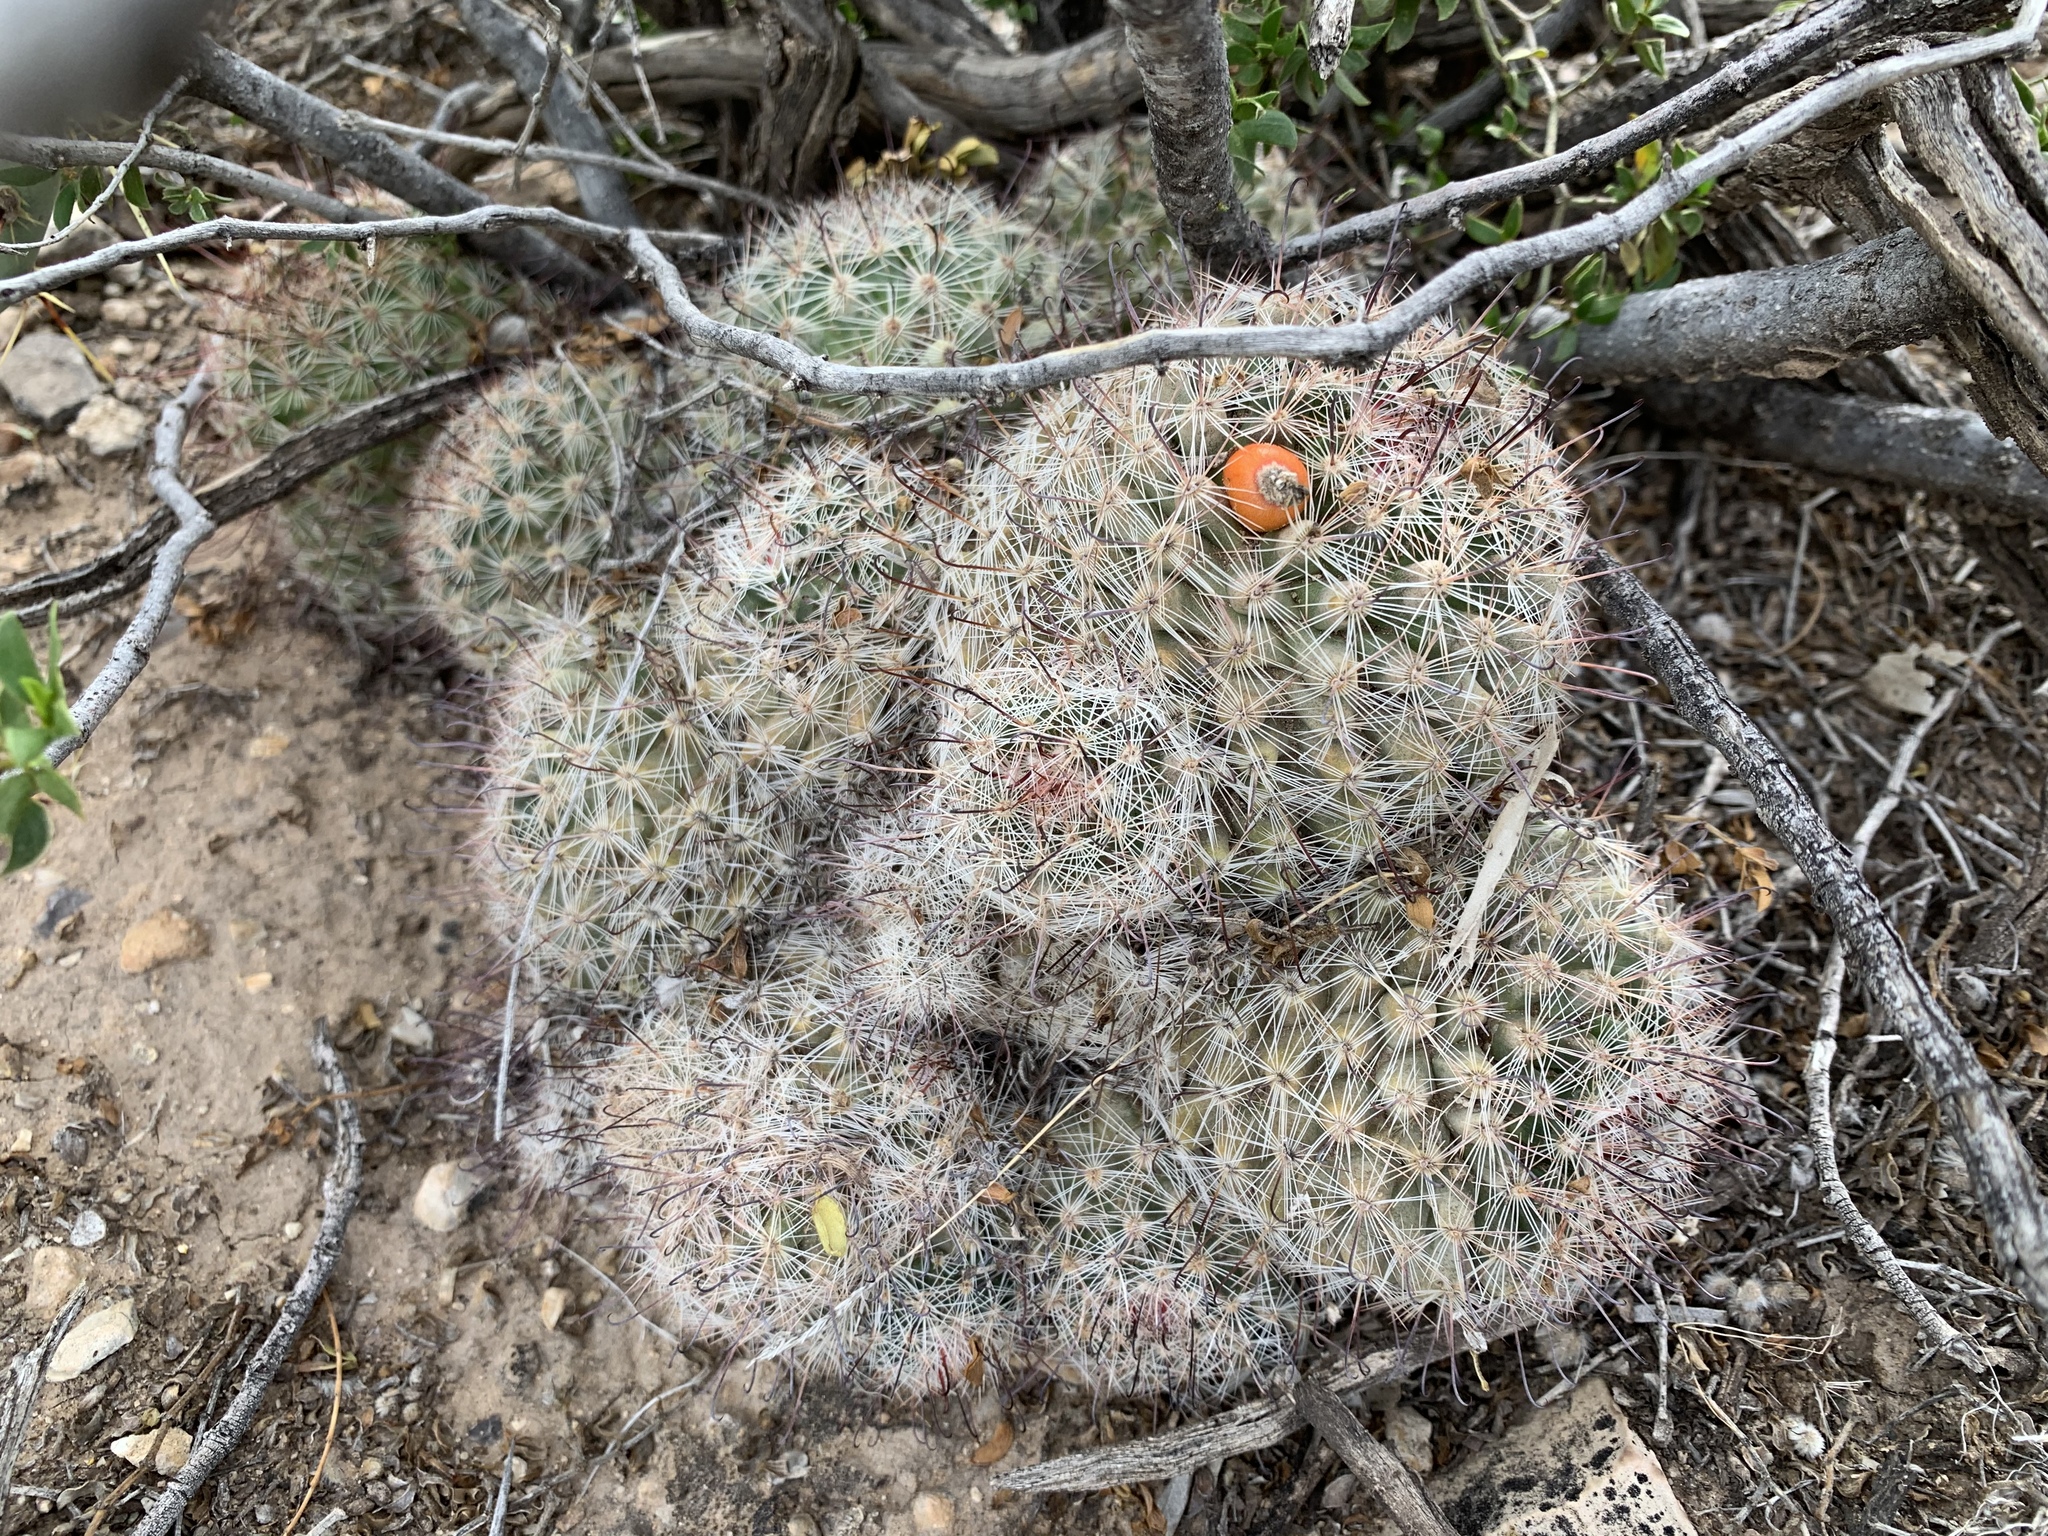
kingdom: Plantae
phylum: Tracheophyta
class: Magnoliopsida
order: Caryophyllales
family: Cactaceae
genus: Cochemiea
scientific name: Cochemiea grahamii
